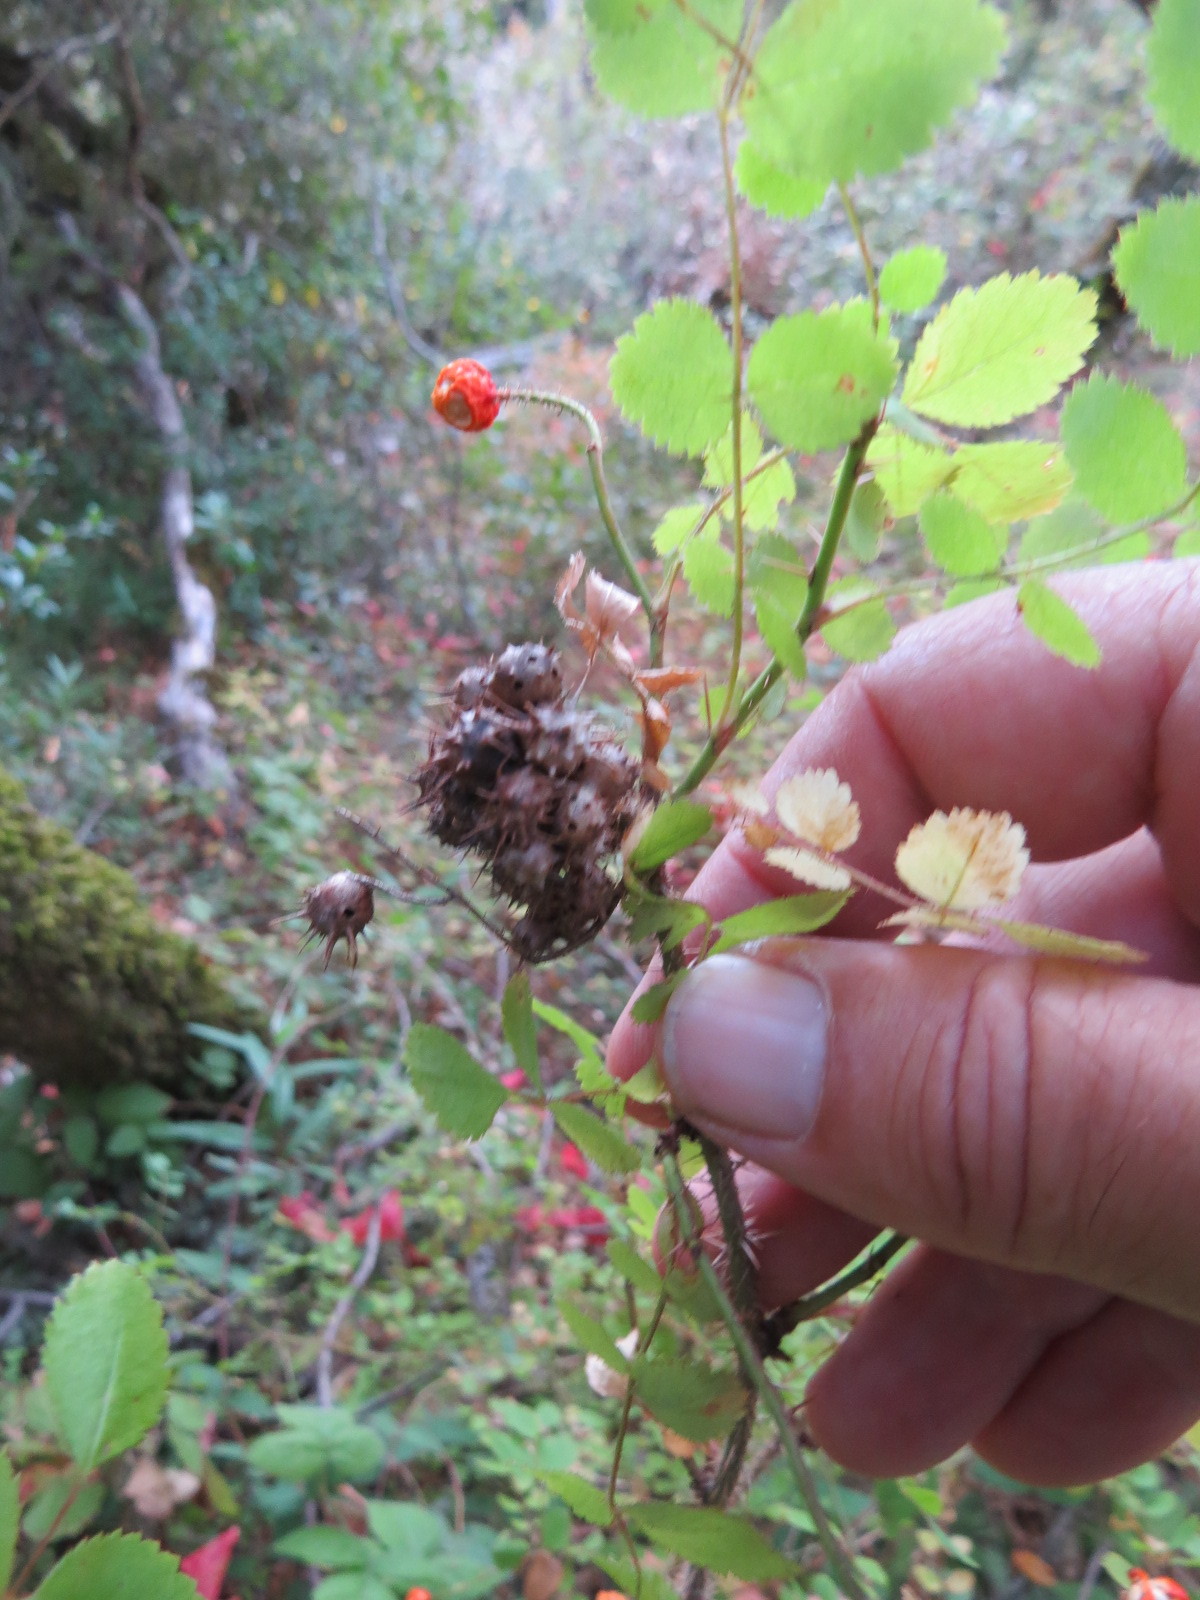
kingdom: Animalia
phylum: Arthropoda
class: Insecta
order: Hymenoptera
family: Cynipidae
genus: Diplolepis
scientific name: Diplolepis bicolor
